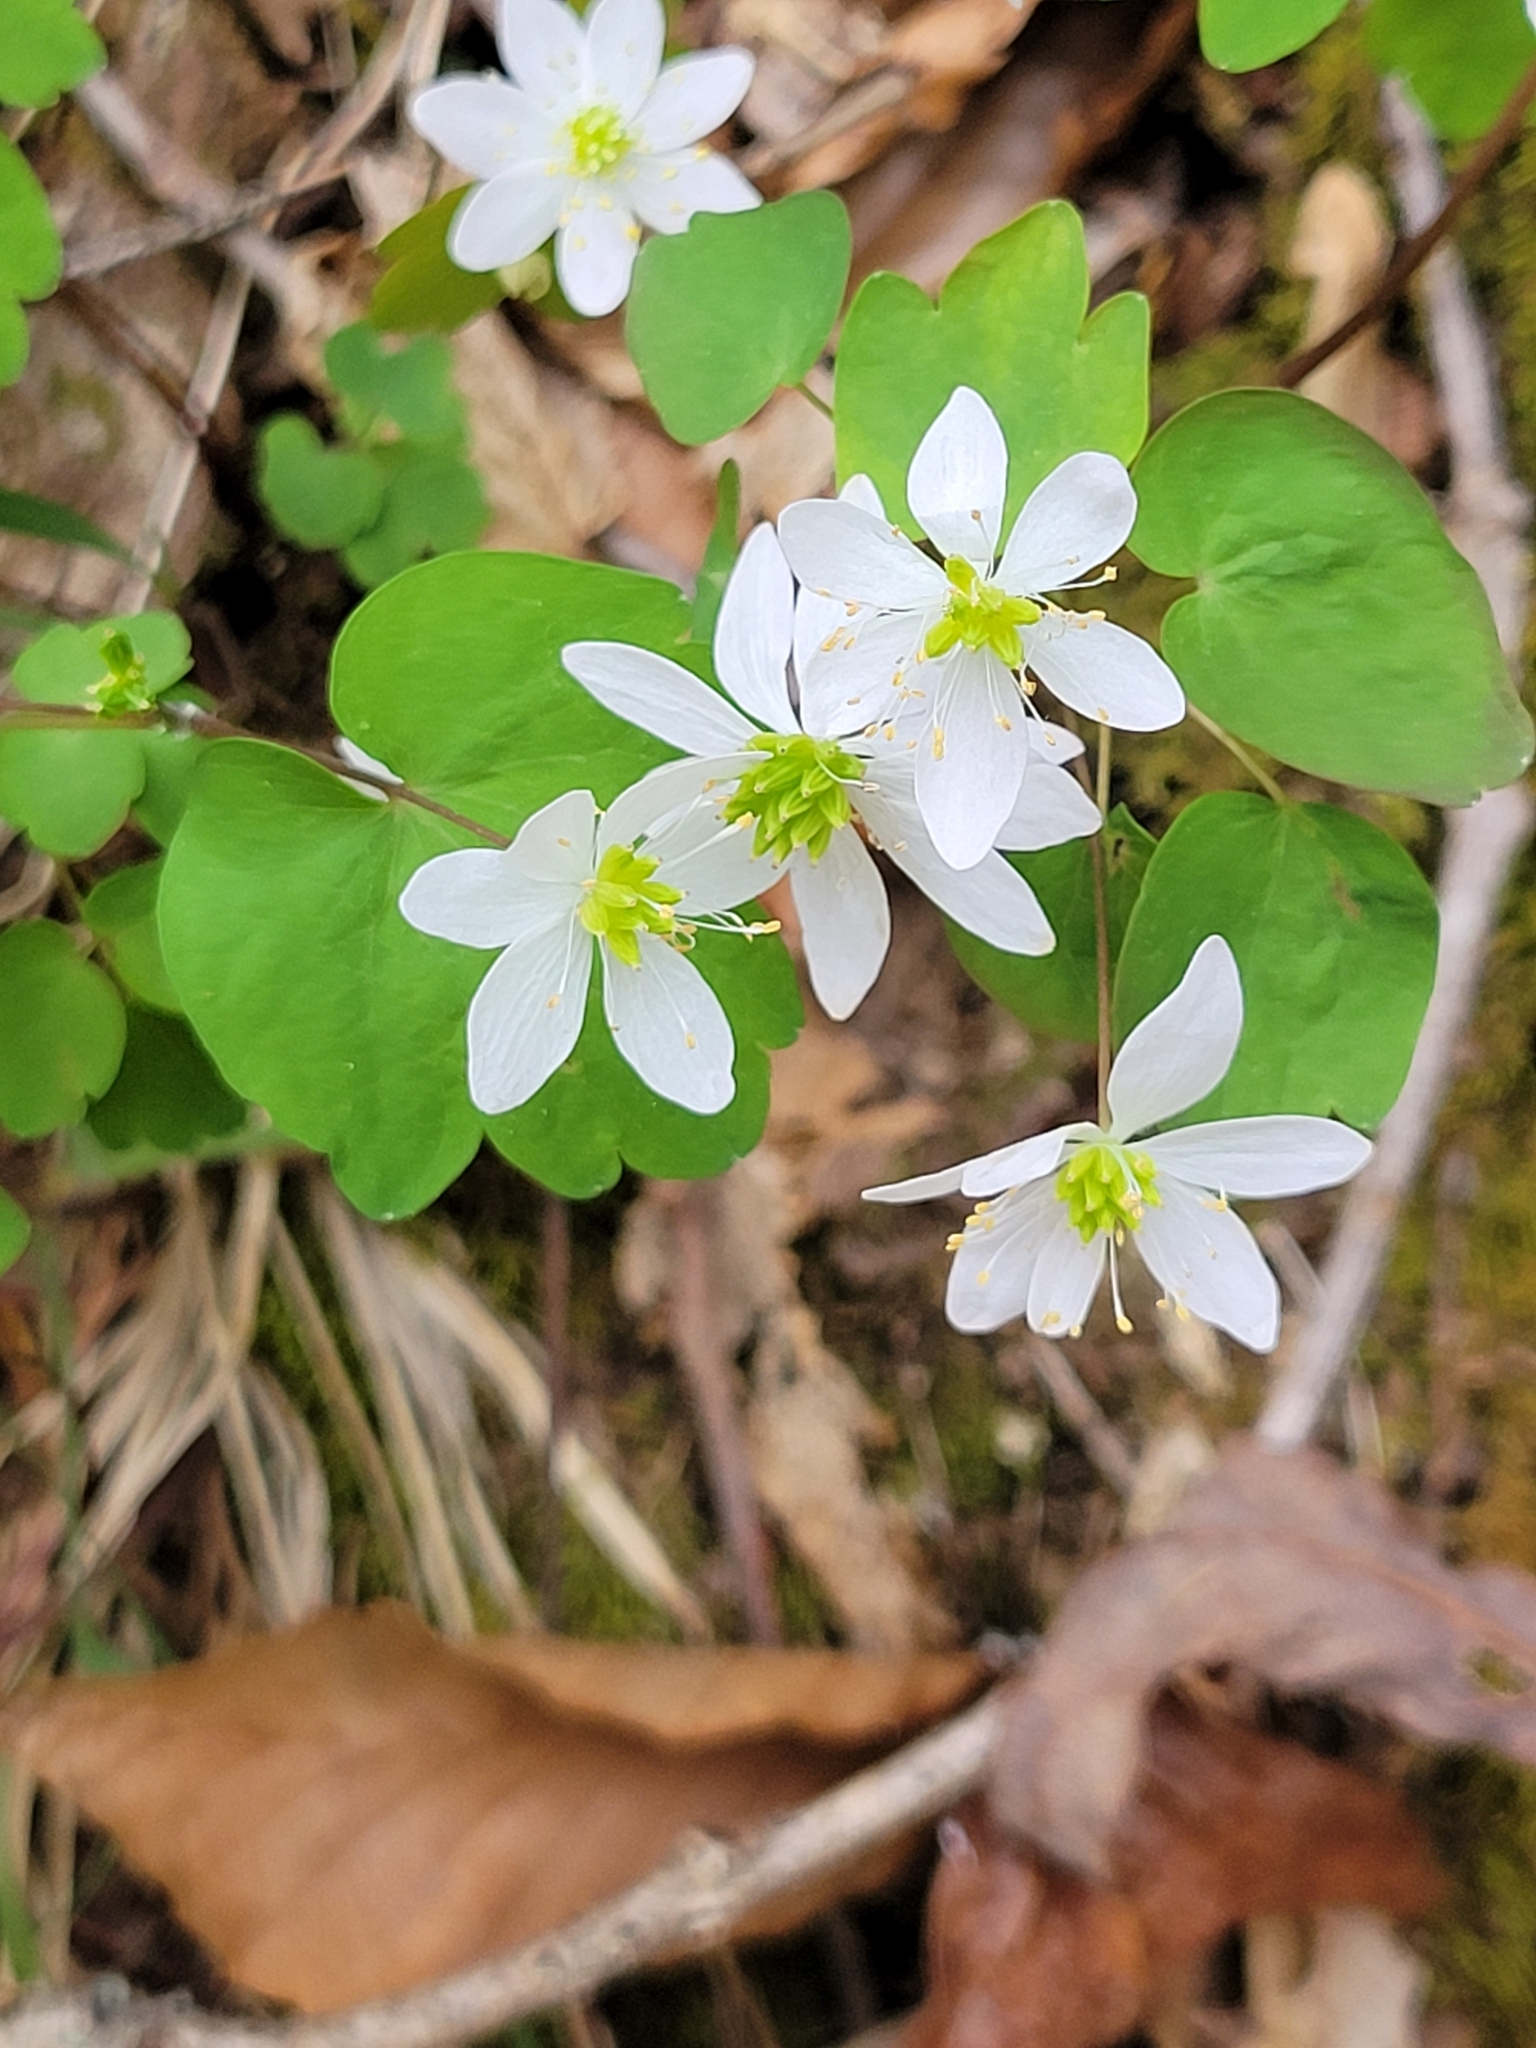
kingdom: Plantae
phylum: Tracheophyta
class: Magnoliopsida
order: Ranunculales
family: Ranunculaceae
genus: Thalictrum
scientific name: Thalictrum thalictroides
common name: Rue-anemone
